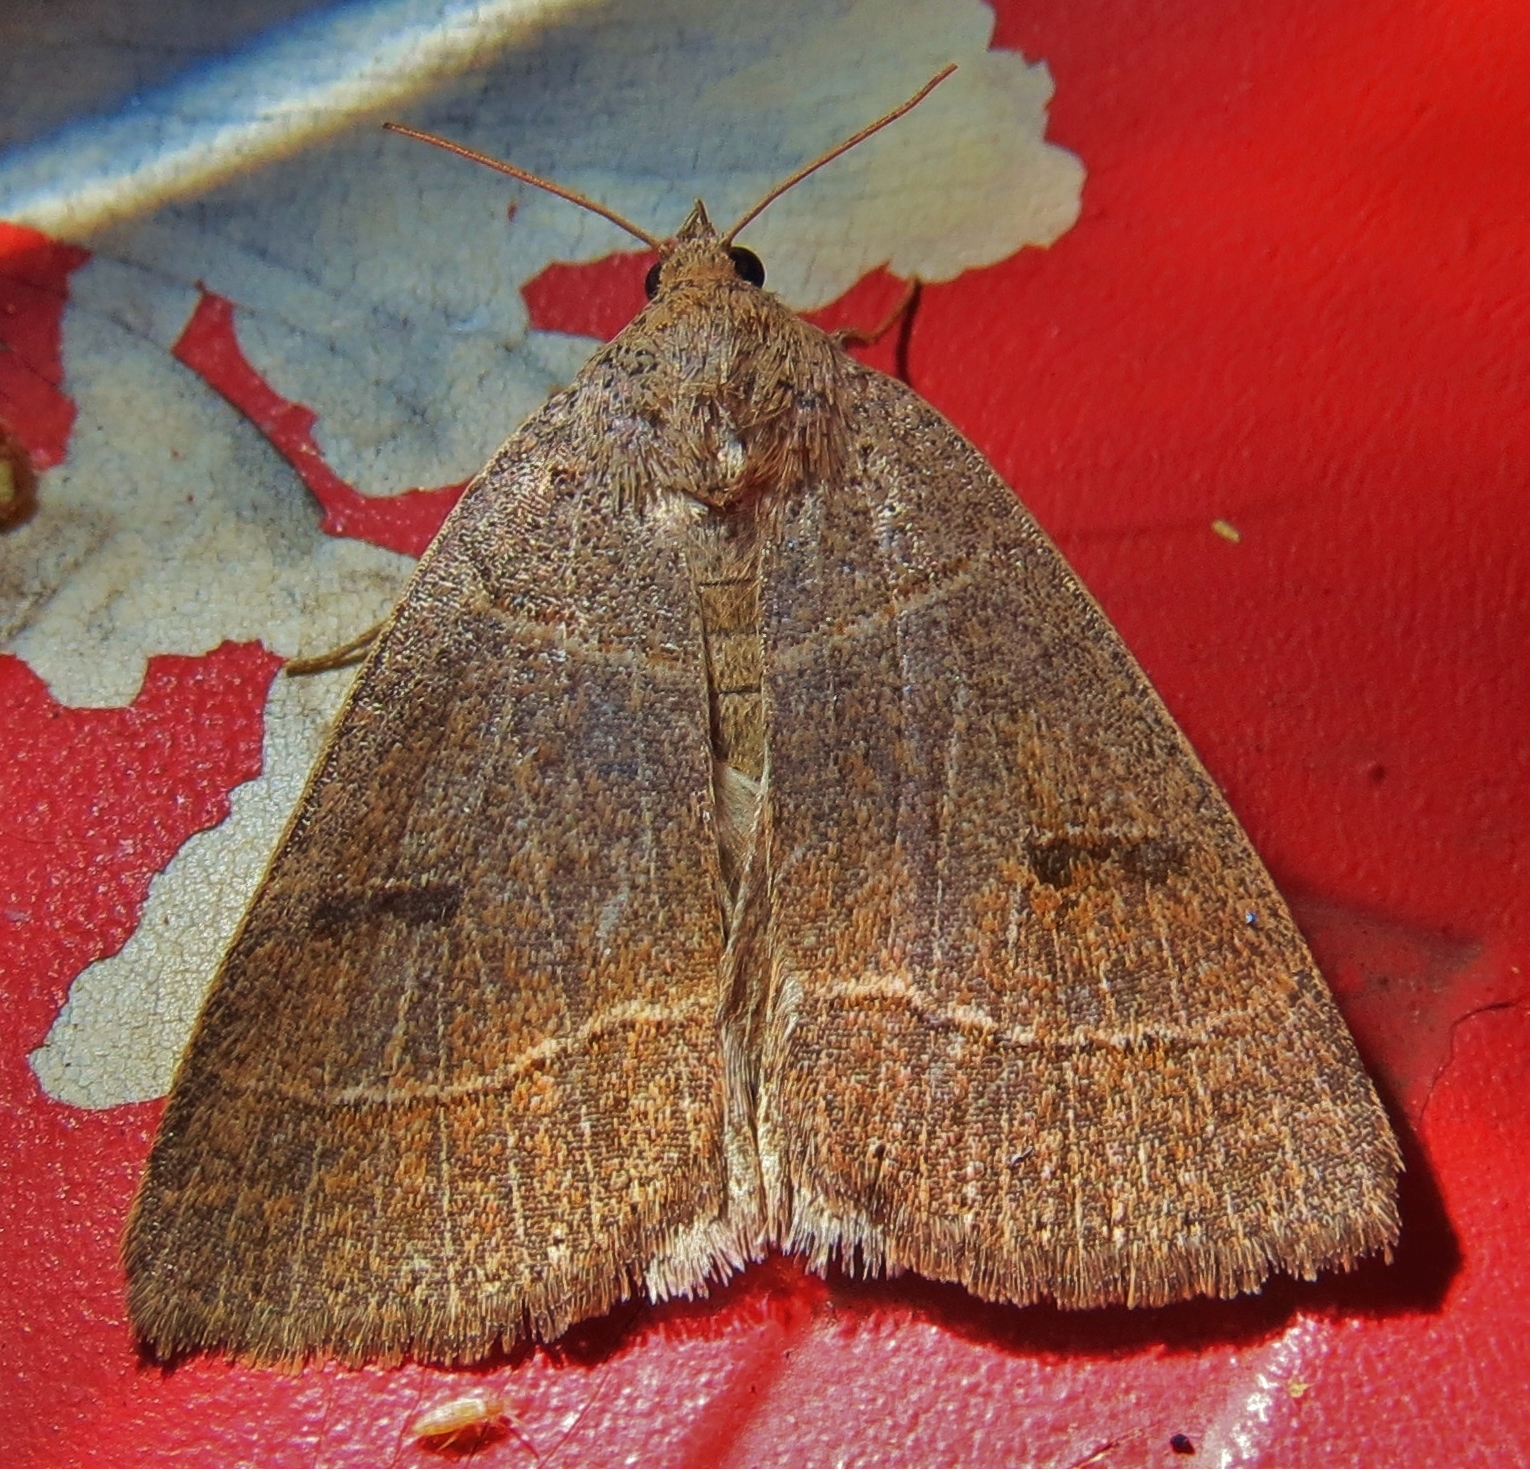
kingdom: Animalia
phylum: Arthropoda
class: Insecta
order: Lepidoptera
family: Erebidae
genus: Phoberia
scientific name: Phoberia atomaris
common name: Common oak moth
